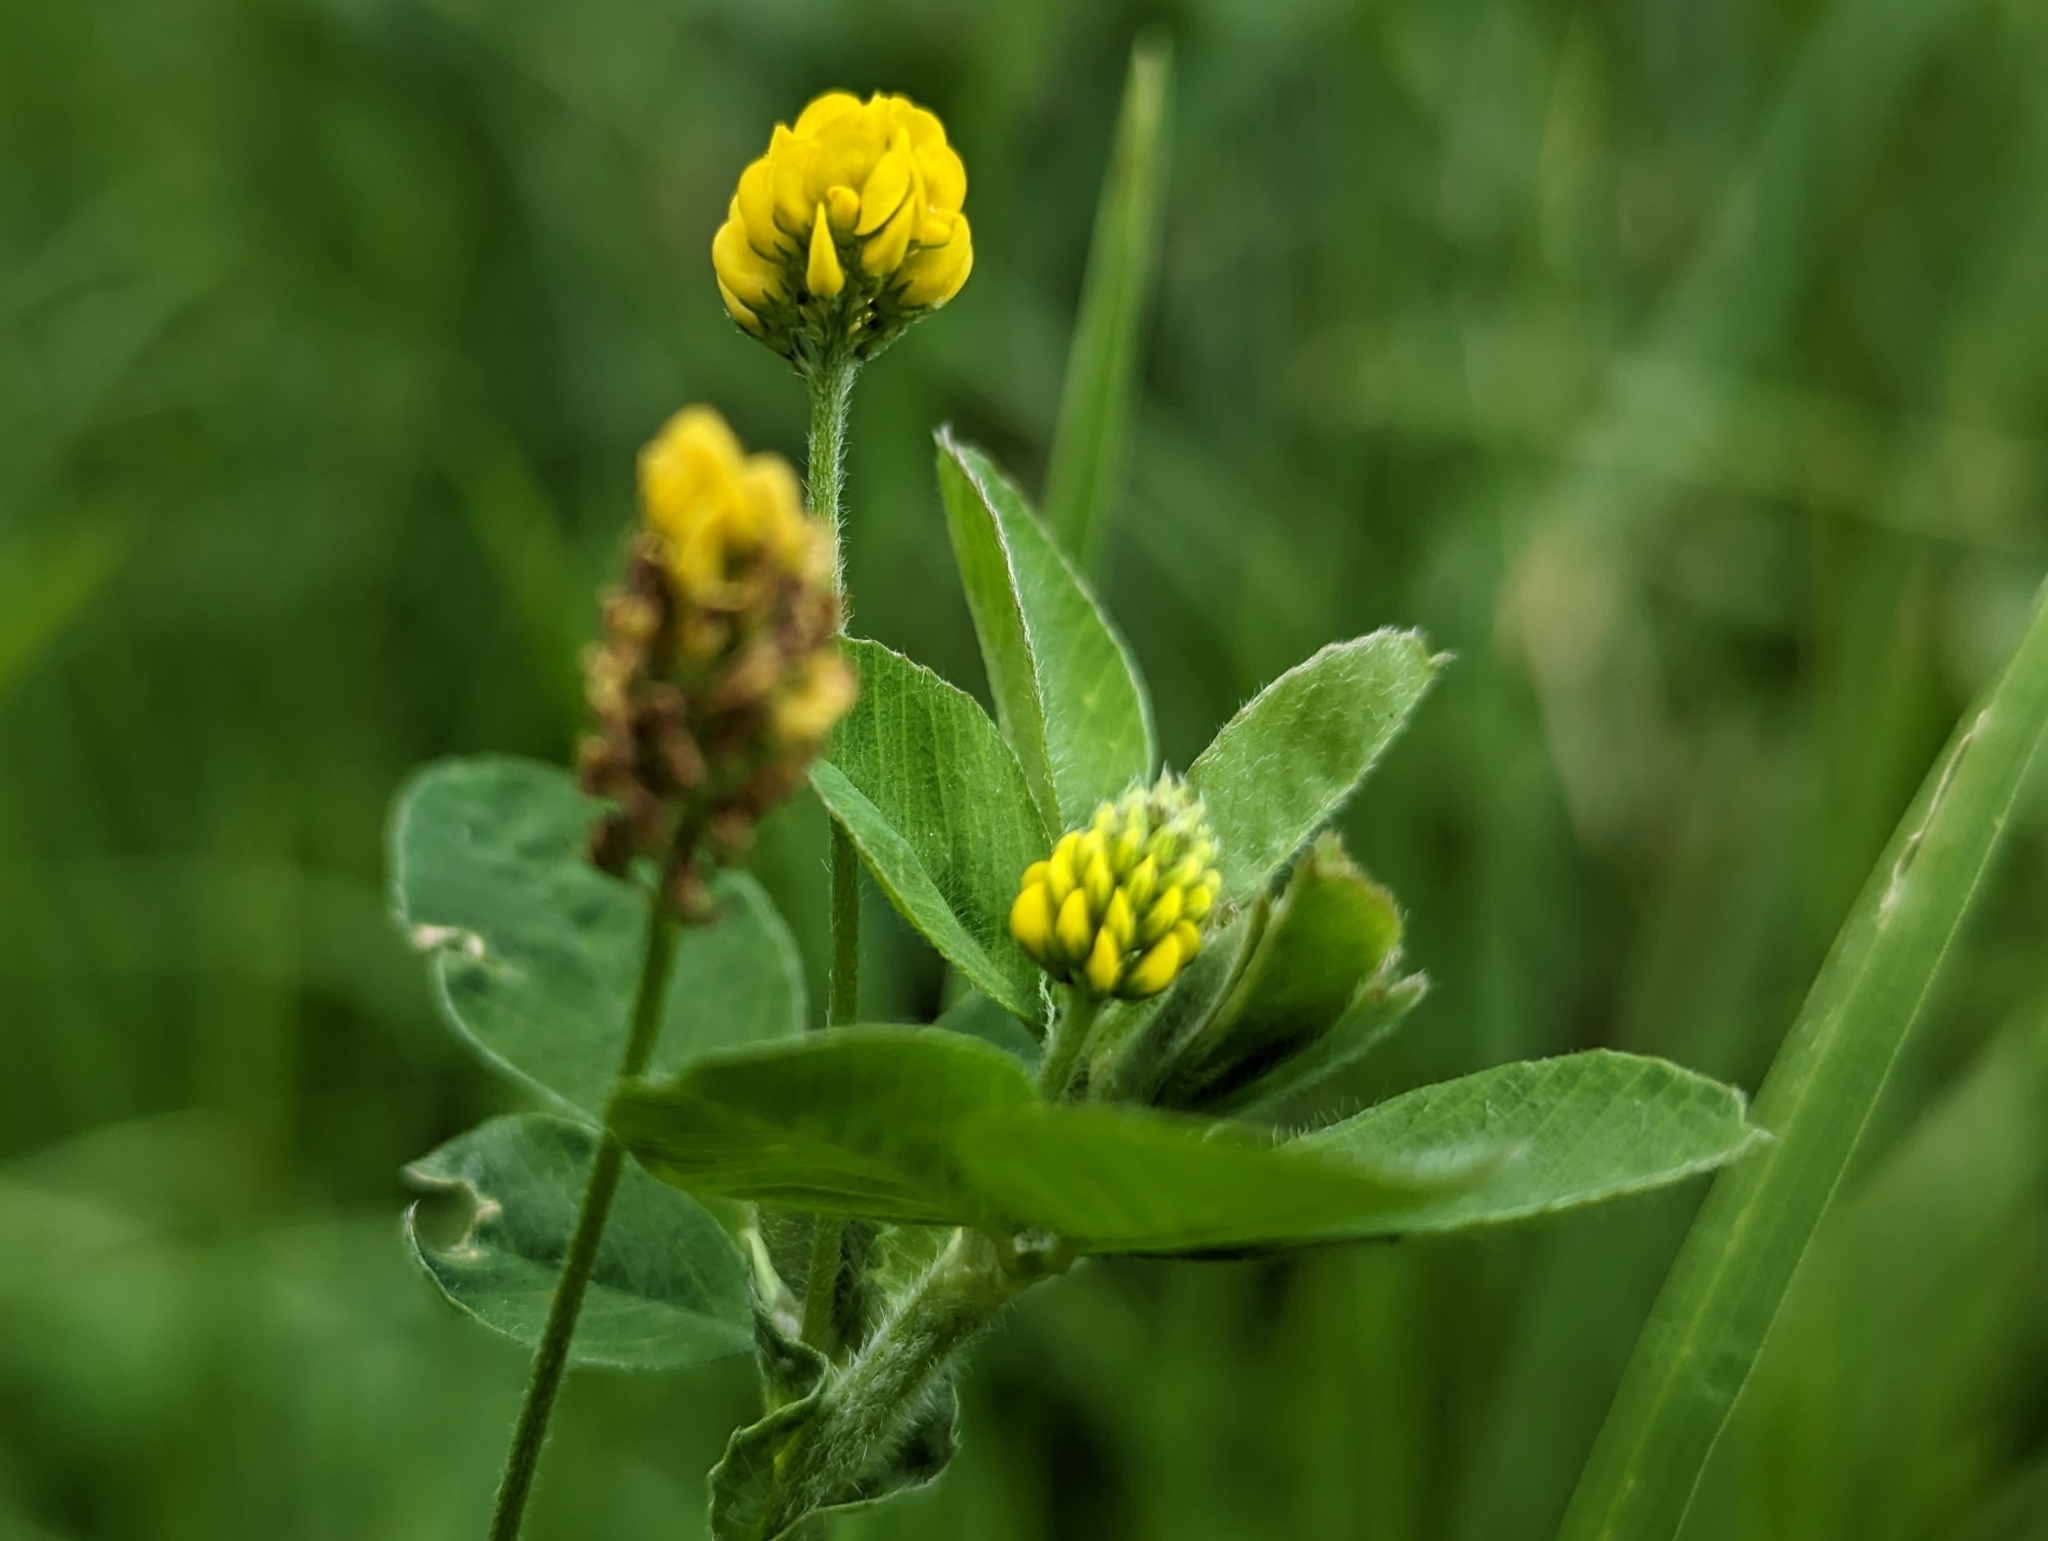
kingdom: Plantae
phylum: Tracheophyta
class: Magnoliopsida
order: Fabales
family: Fabaceae
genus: Medicago
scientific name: Medicago lupulina
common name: Black medick
